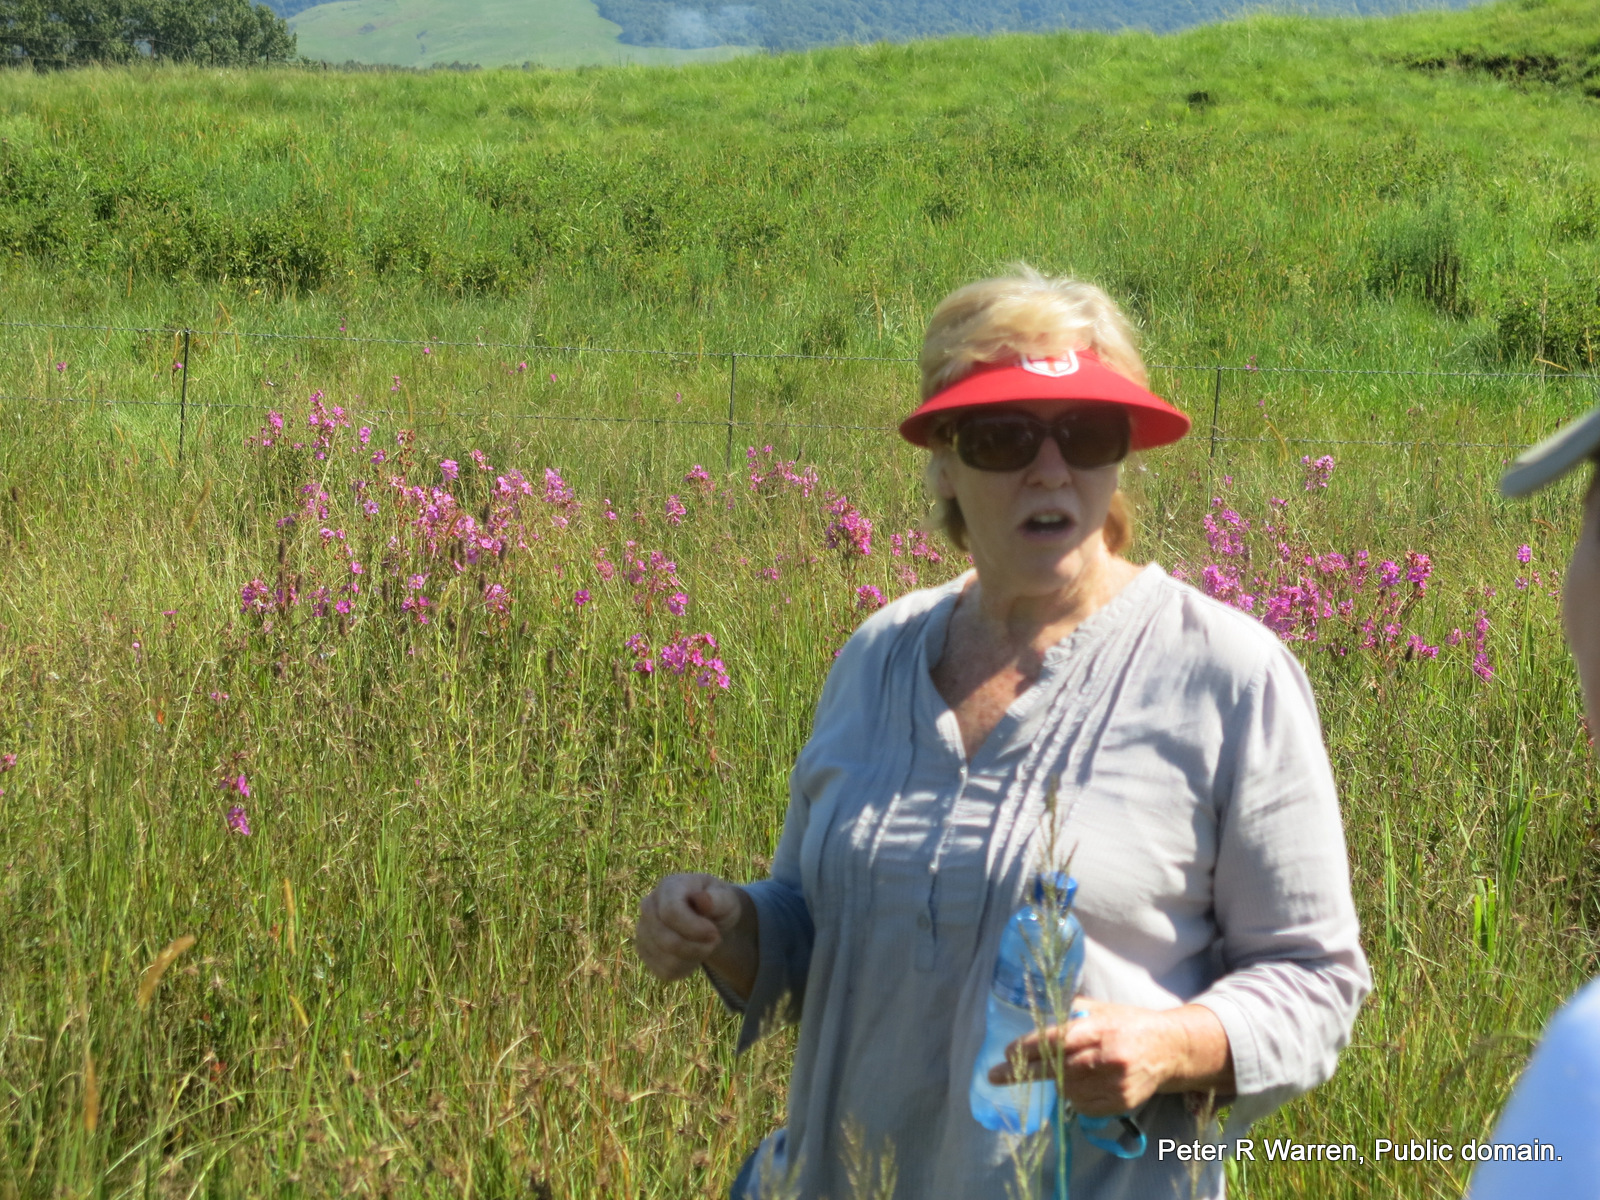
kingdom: Plantae
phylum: Tracheophyta
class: Magnoliopsida
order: Myrtales
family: Melastomataceae
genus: Argyrella
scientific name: Argyrella canescens
